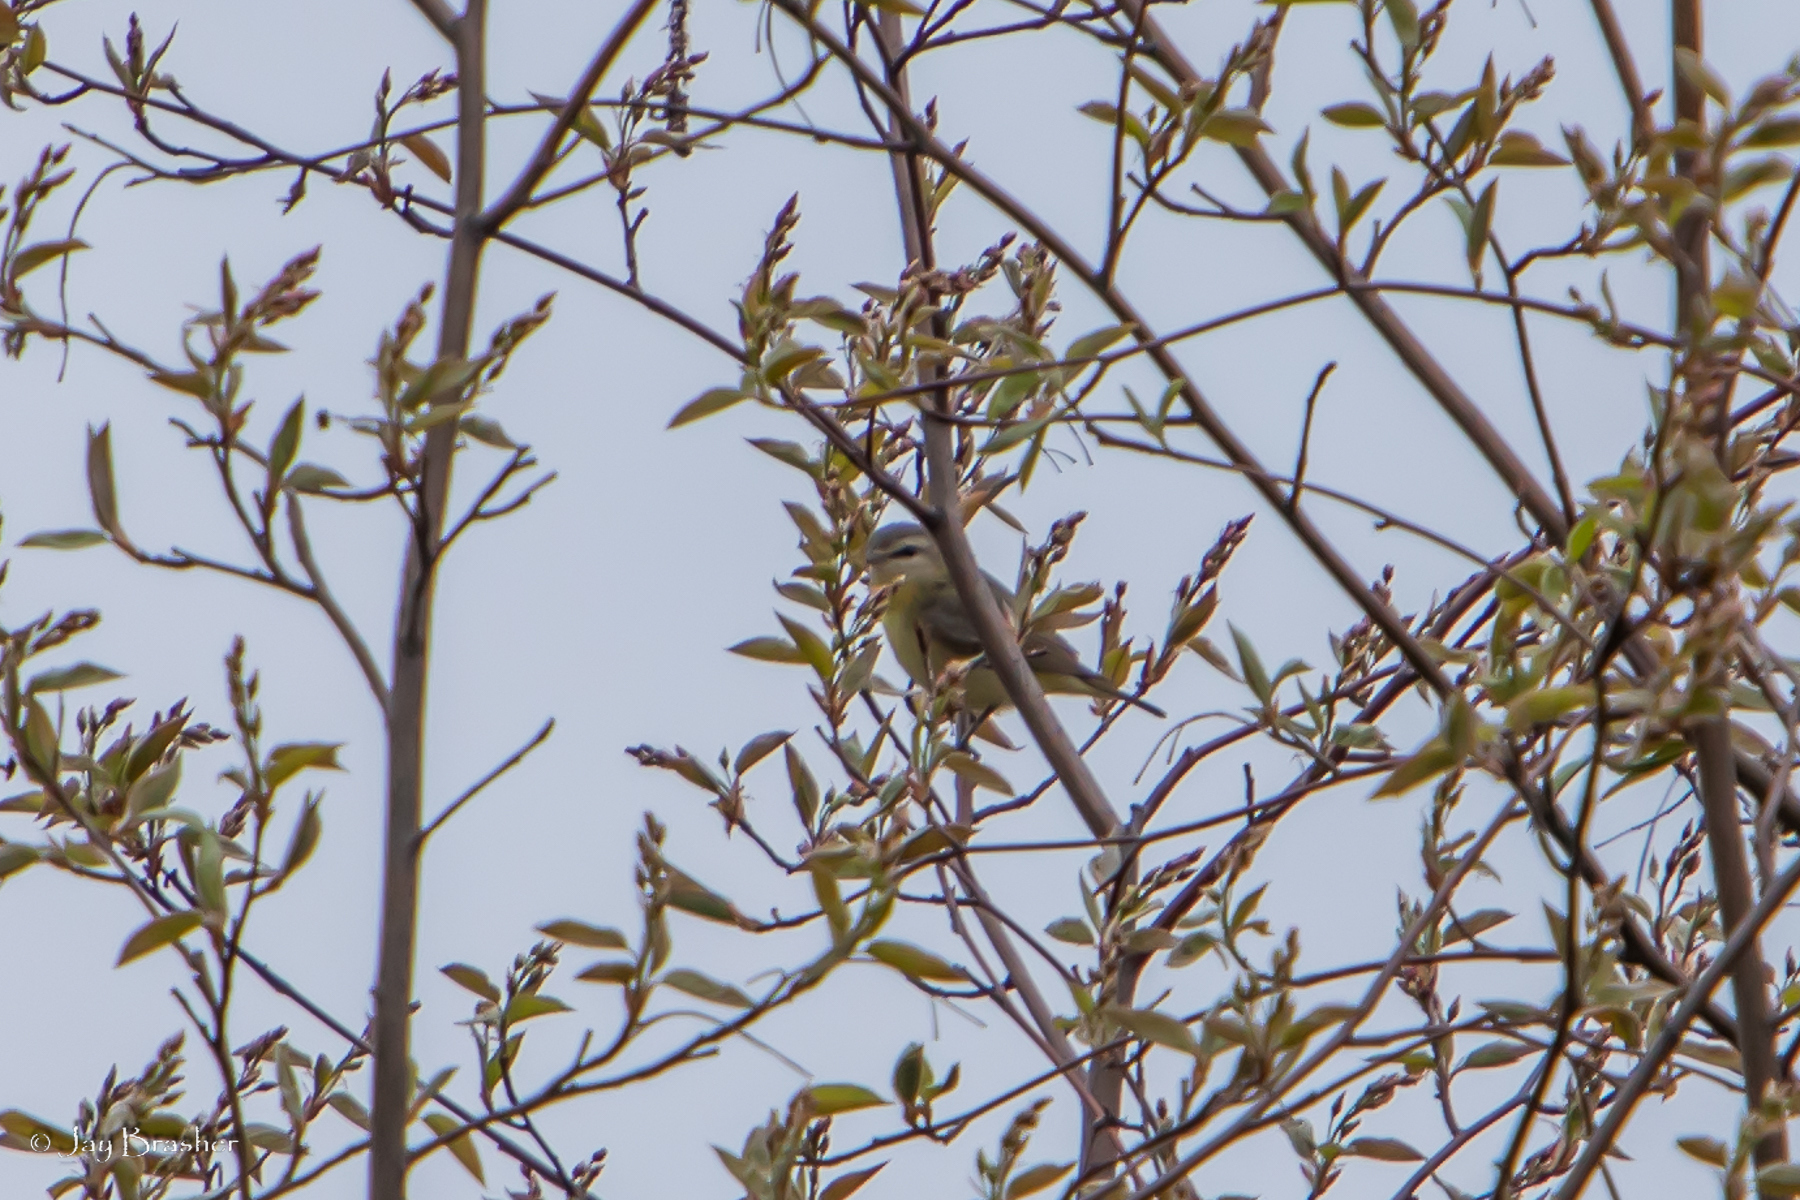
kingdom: Animalia
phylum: Chordata
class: Aves
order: Passeriformes
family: Vireonidae
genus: Vireo
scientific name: Vireo olivaceus
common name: Red-eyed vireo
